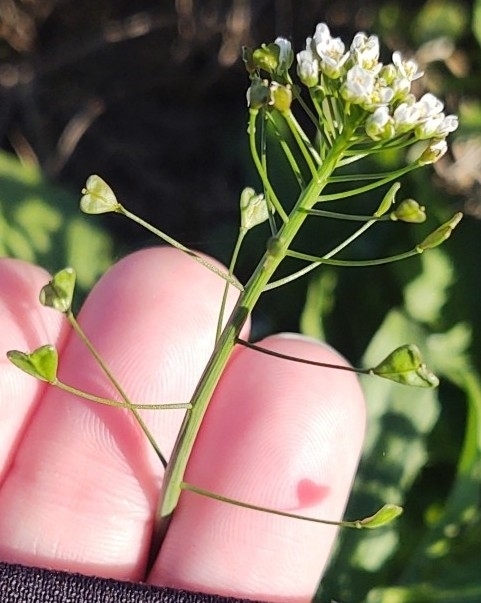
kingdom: Plantae
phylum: Tracheophyta
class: Magnoliopsida
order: Brassicales
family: Brassicaceae
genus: Capsella
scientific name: Capsella bursa-pastoris
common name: Shepherd's purse
